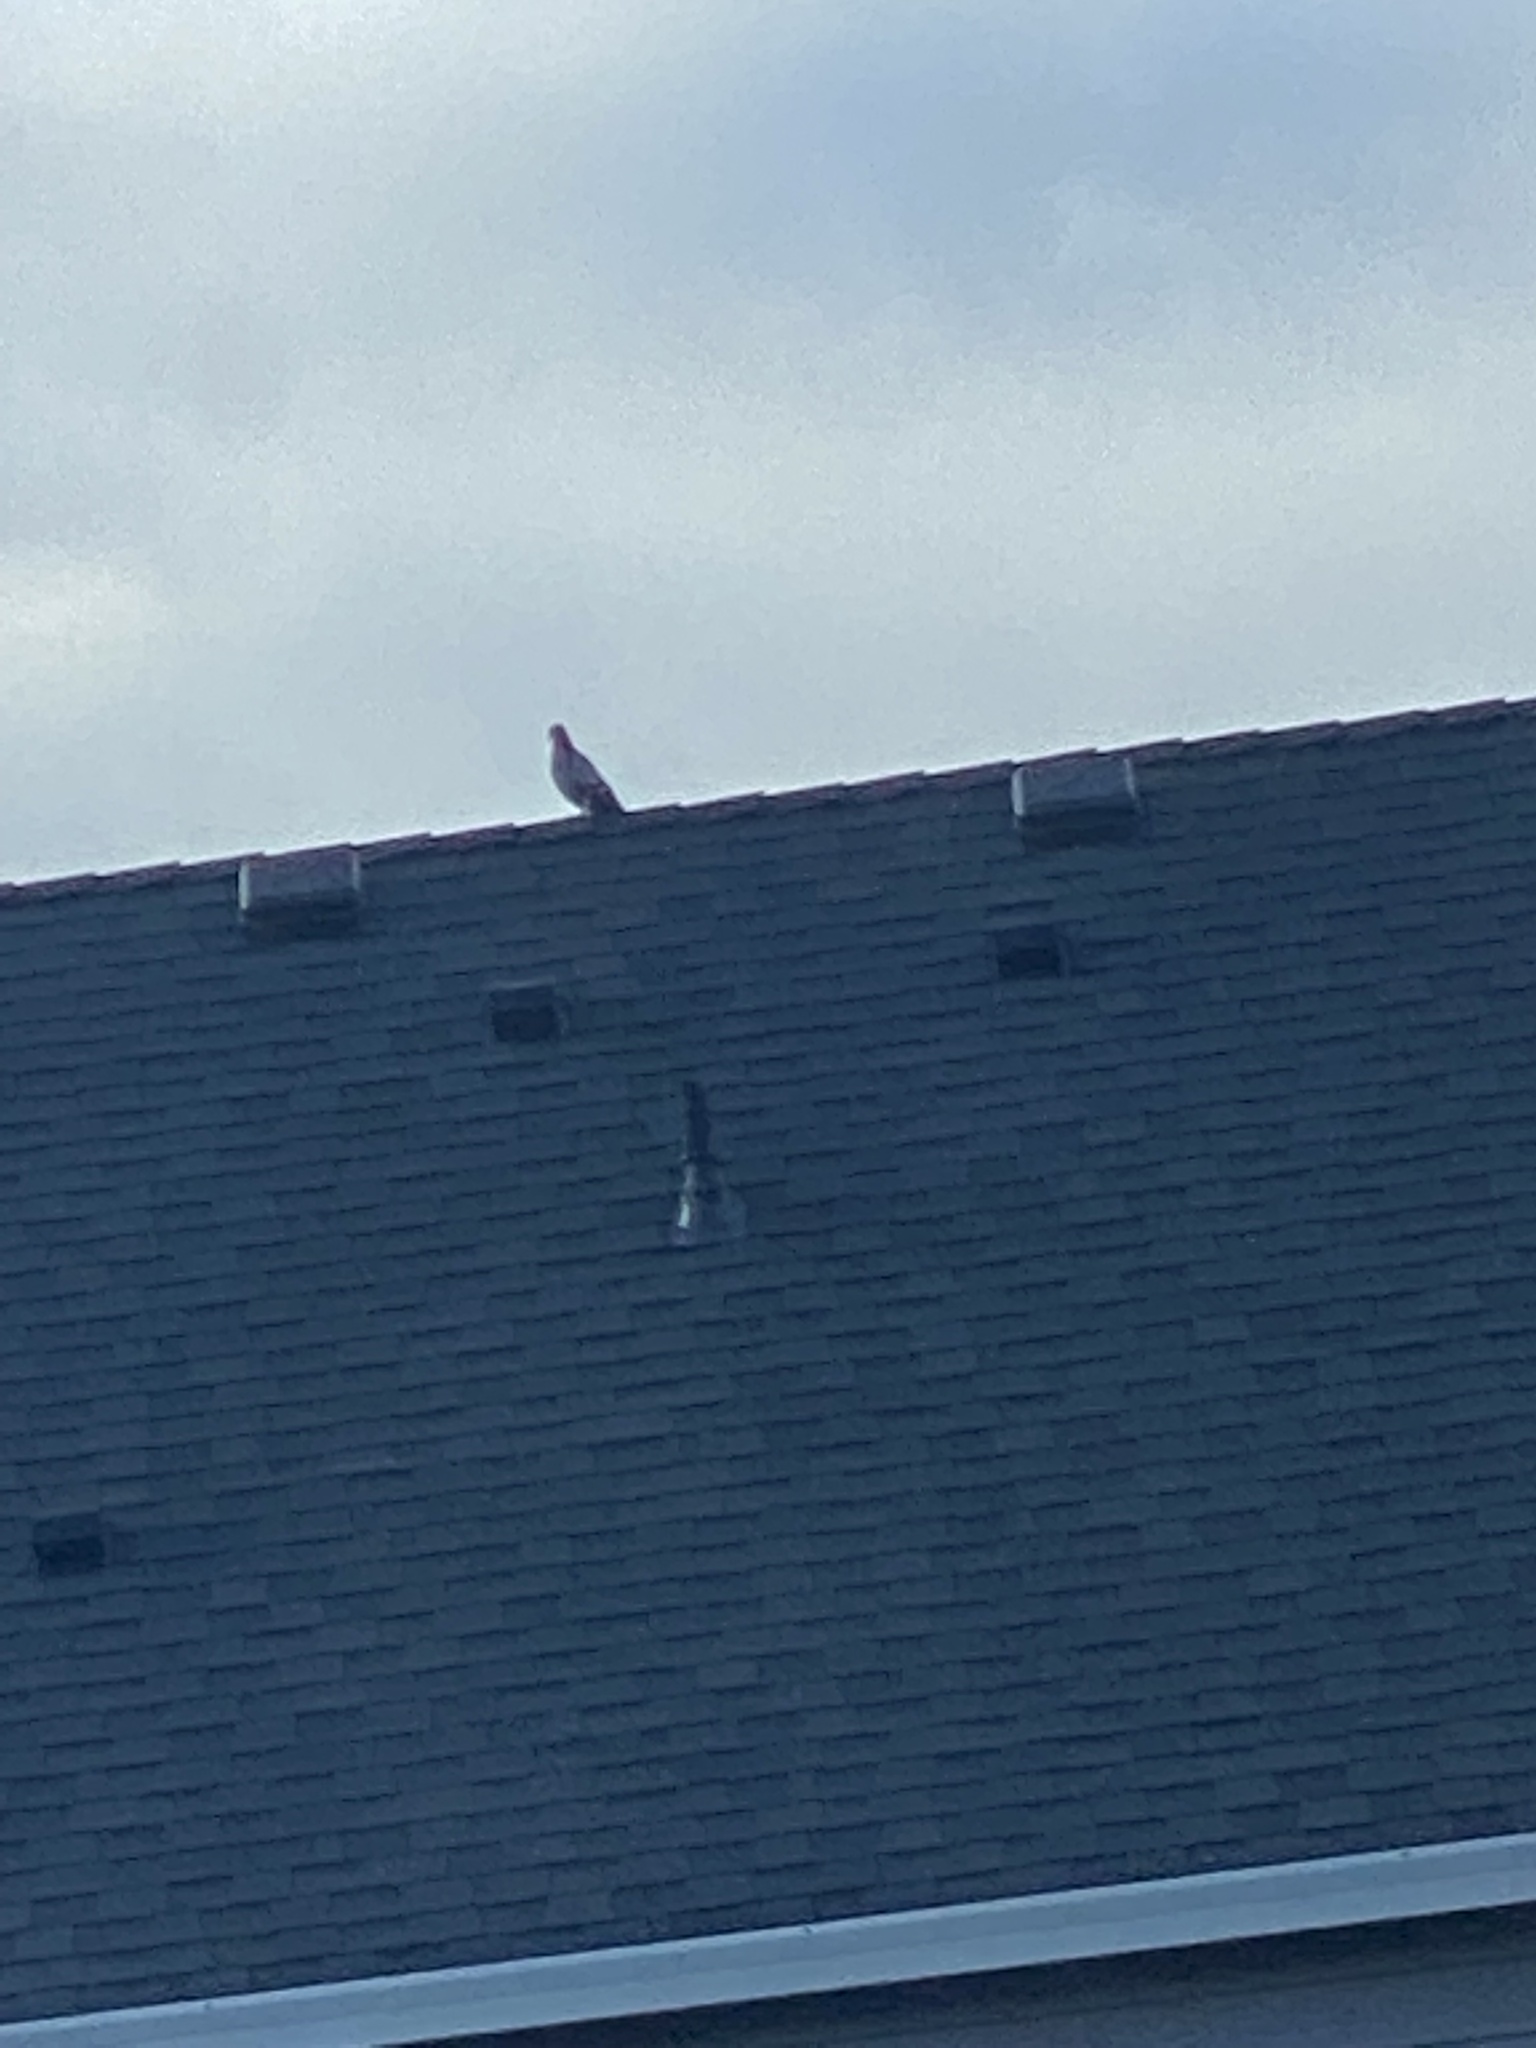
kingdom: Animalia
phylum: Chordata
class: Aves
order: Columbiformes
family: Columbidae
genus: Columba
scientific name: Columba livia
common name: Rock pigeon
